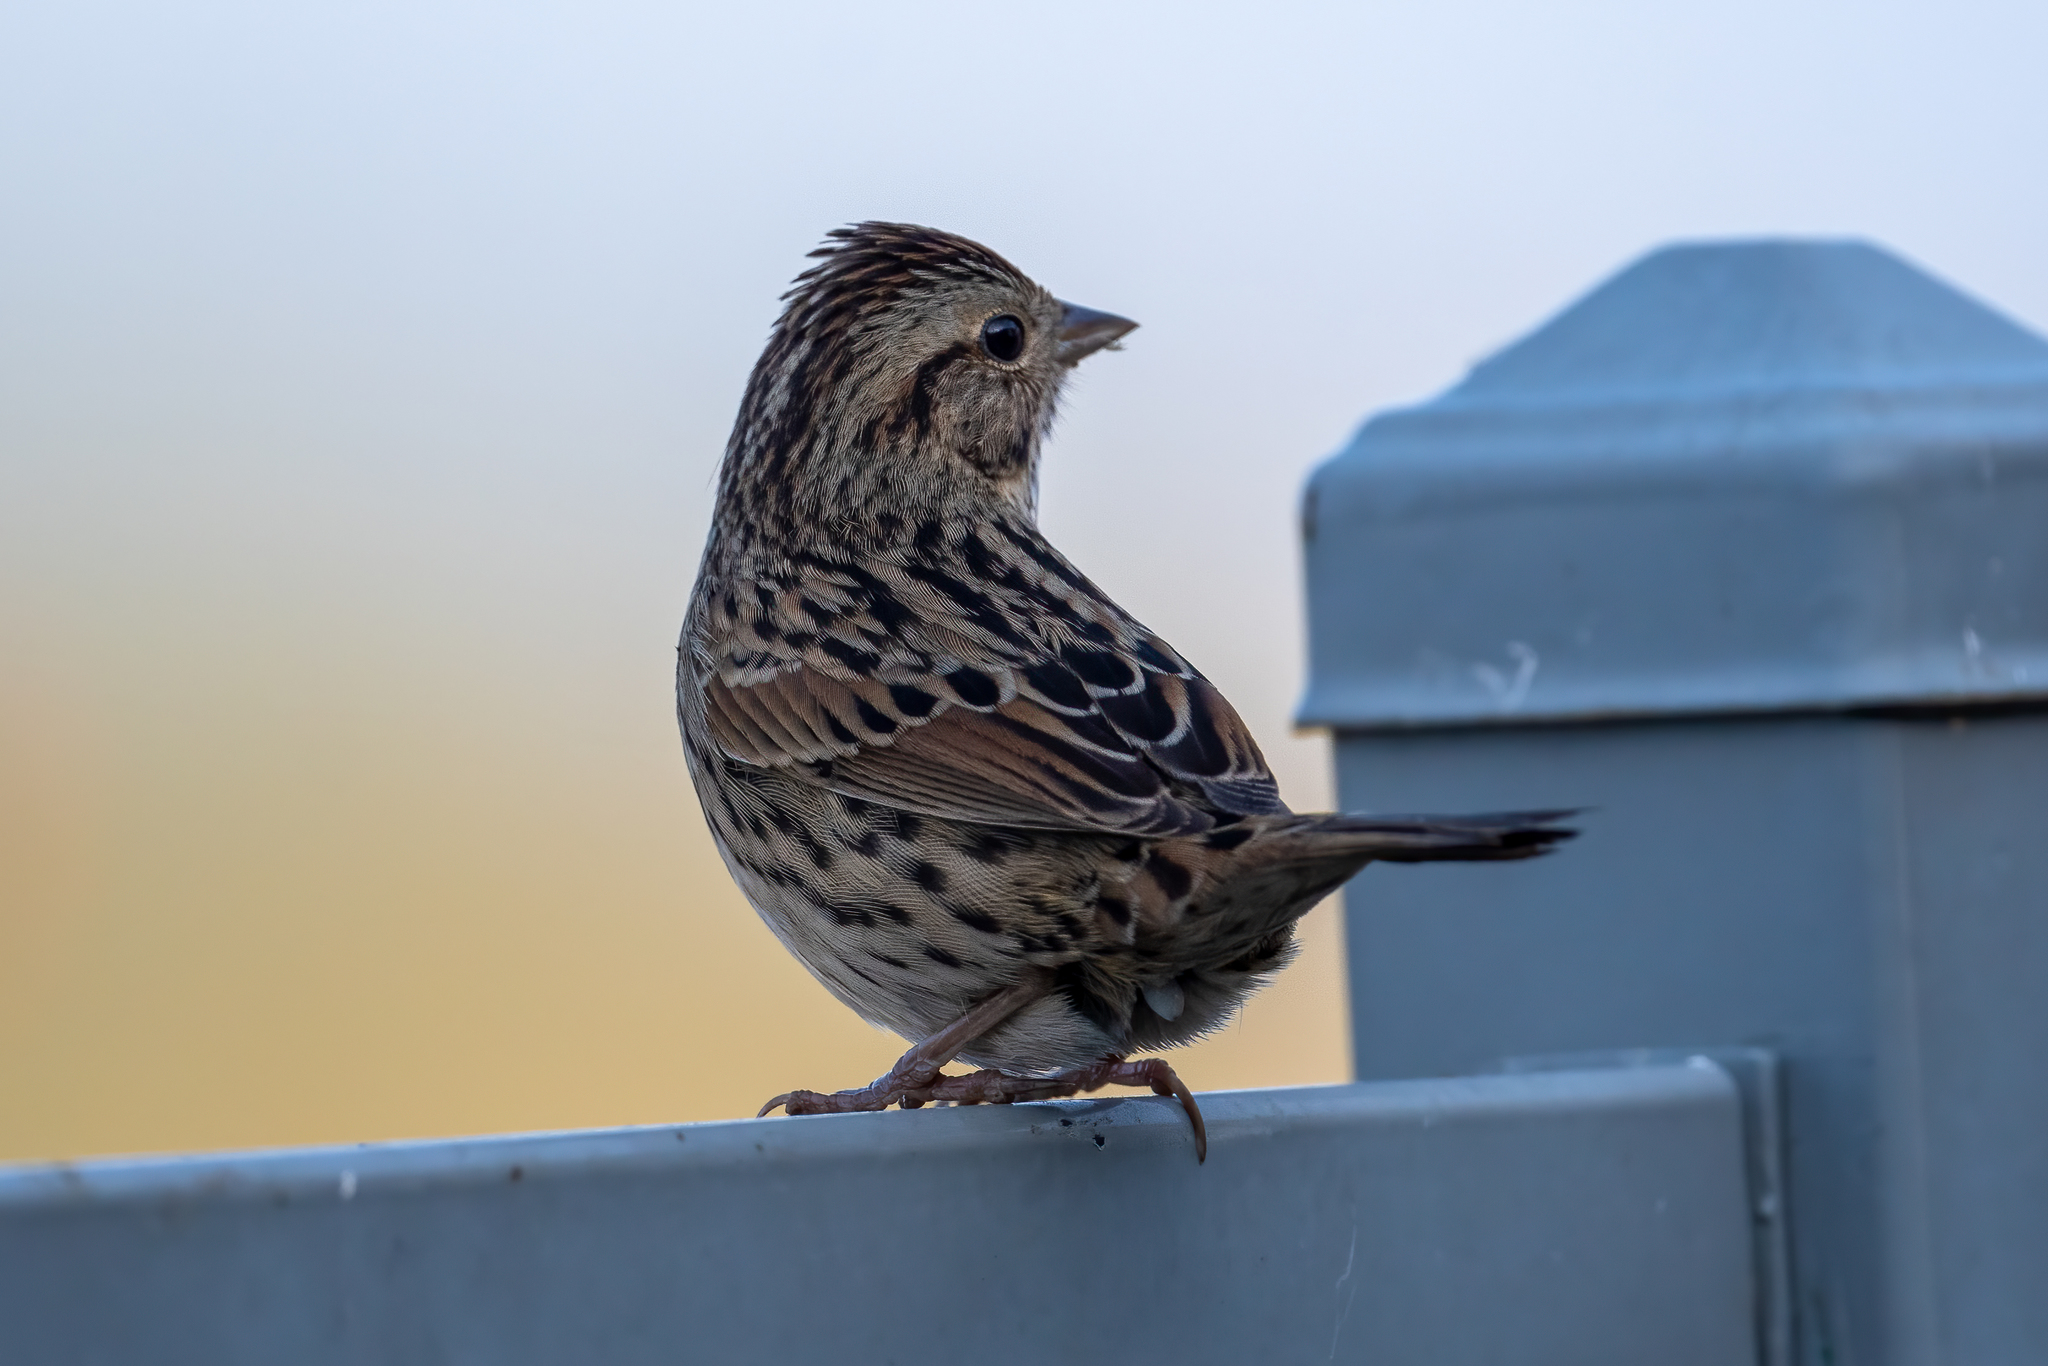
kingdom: Animalia
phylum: Chordata
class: Aves
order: Passeriformes
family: Passerellidae
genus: Melospiza
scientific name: Melospiza lincolnii
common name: Lincoln's sparrow
